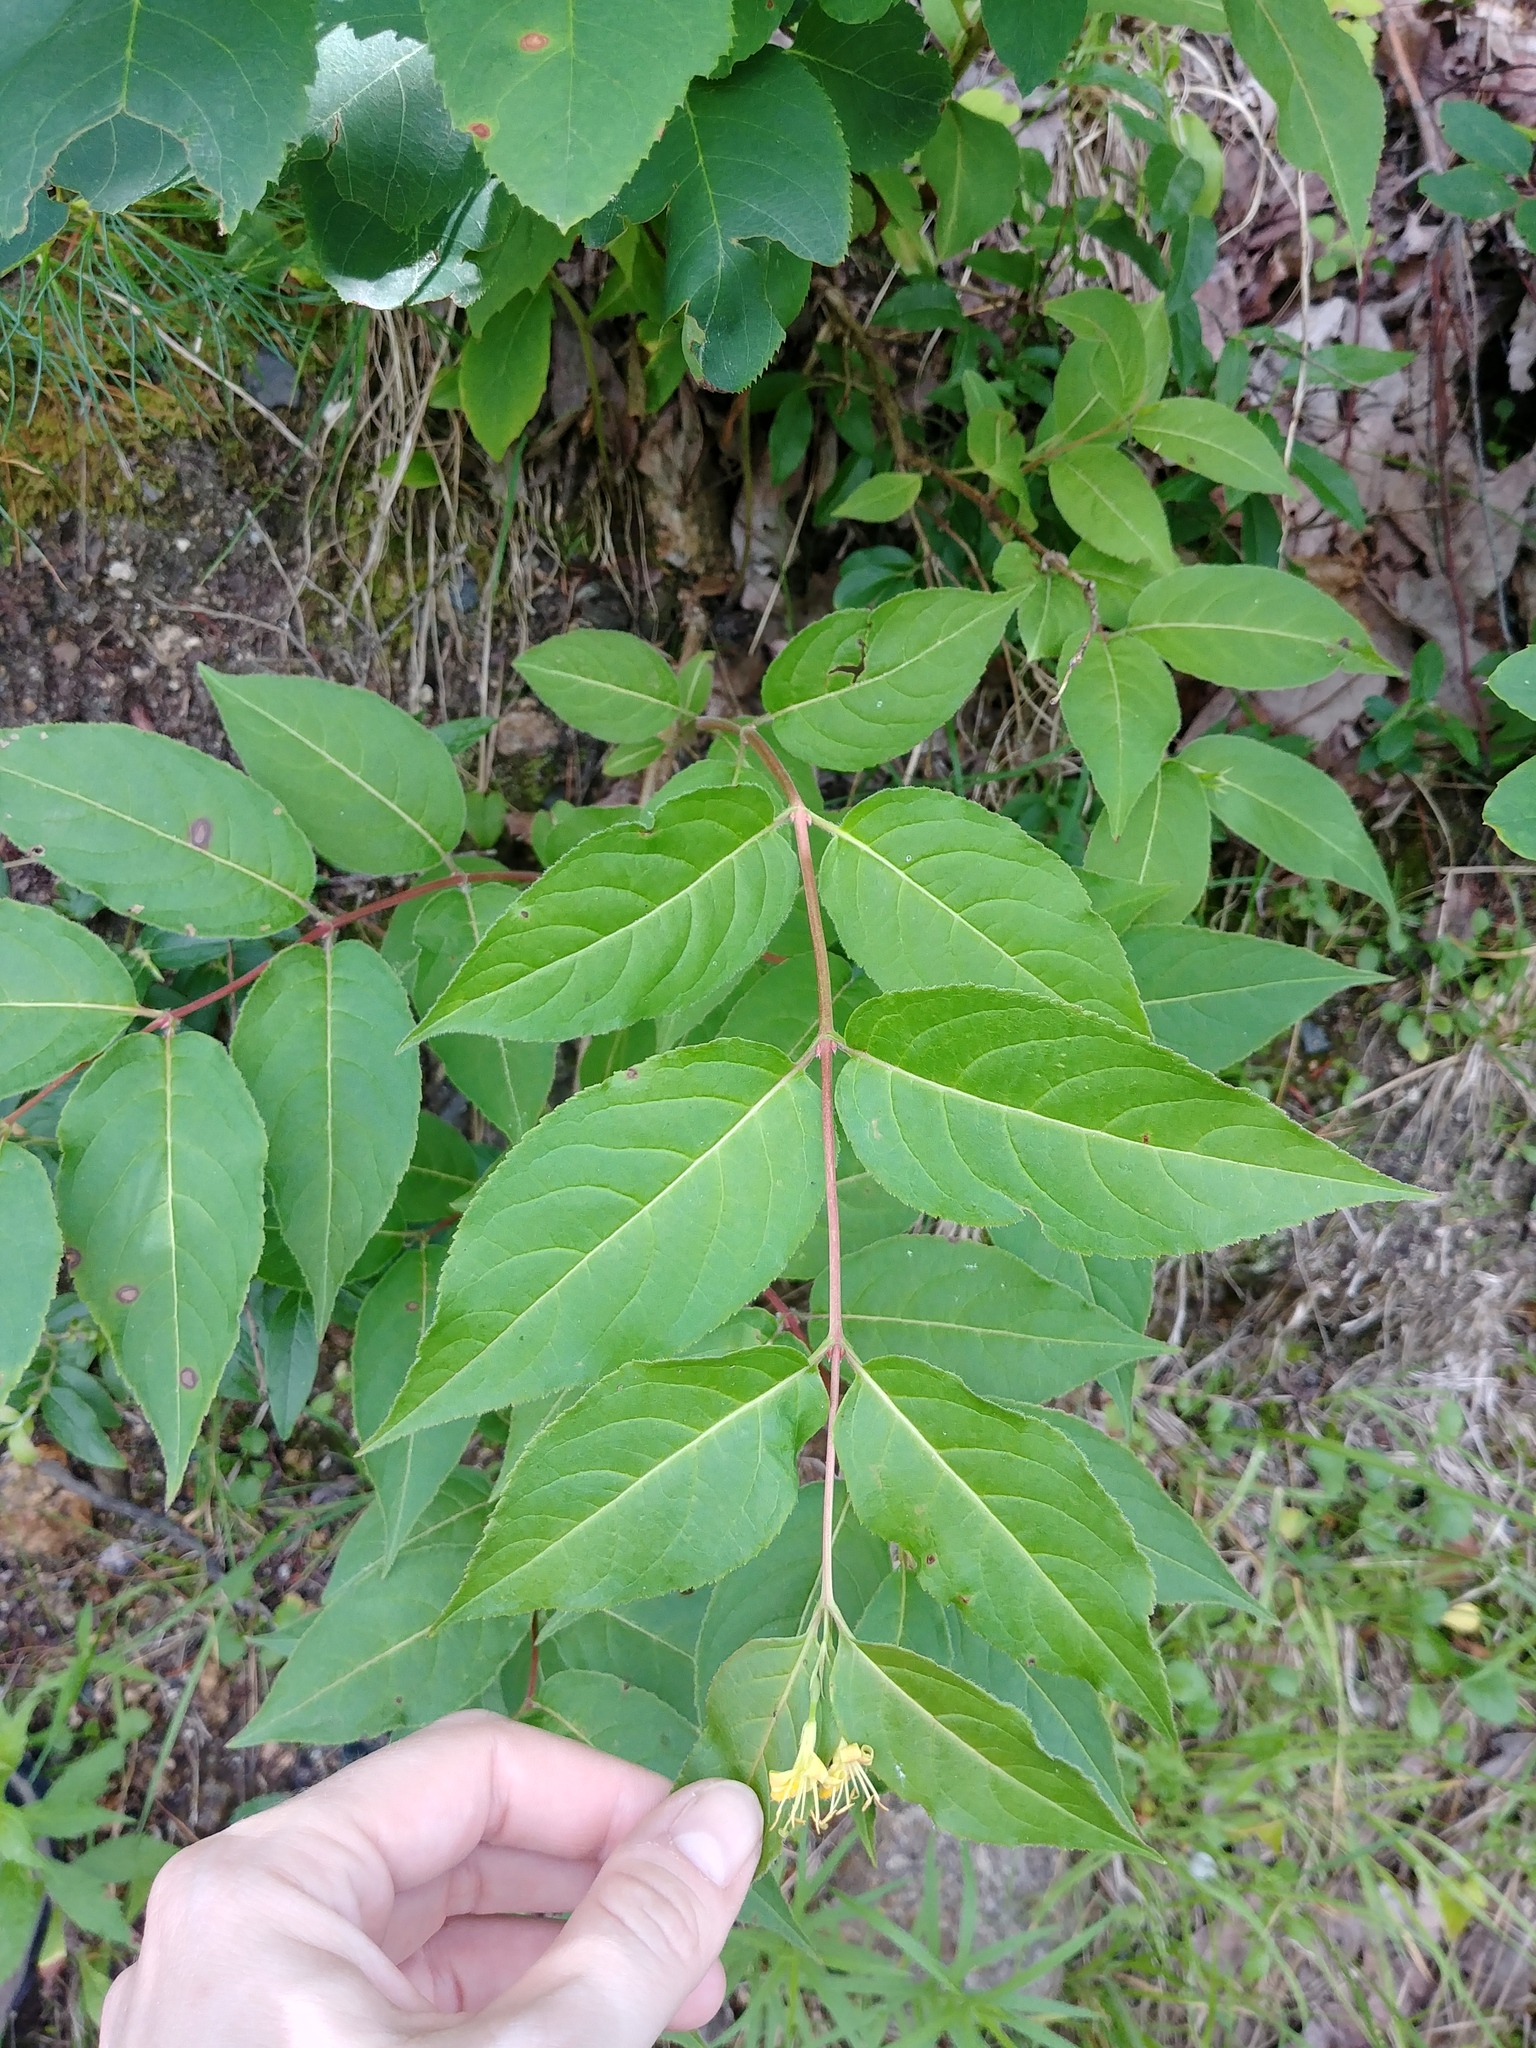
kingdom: Plantae
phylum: Tracheophyta
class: Magnoliopsida
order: Dipsacales
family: Caprifoliaceae
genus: Diervilla
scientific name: Diervilla lonicera
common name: Bush-honeysuckle
